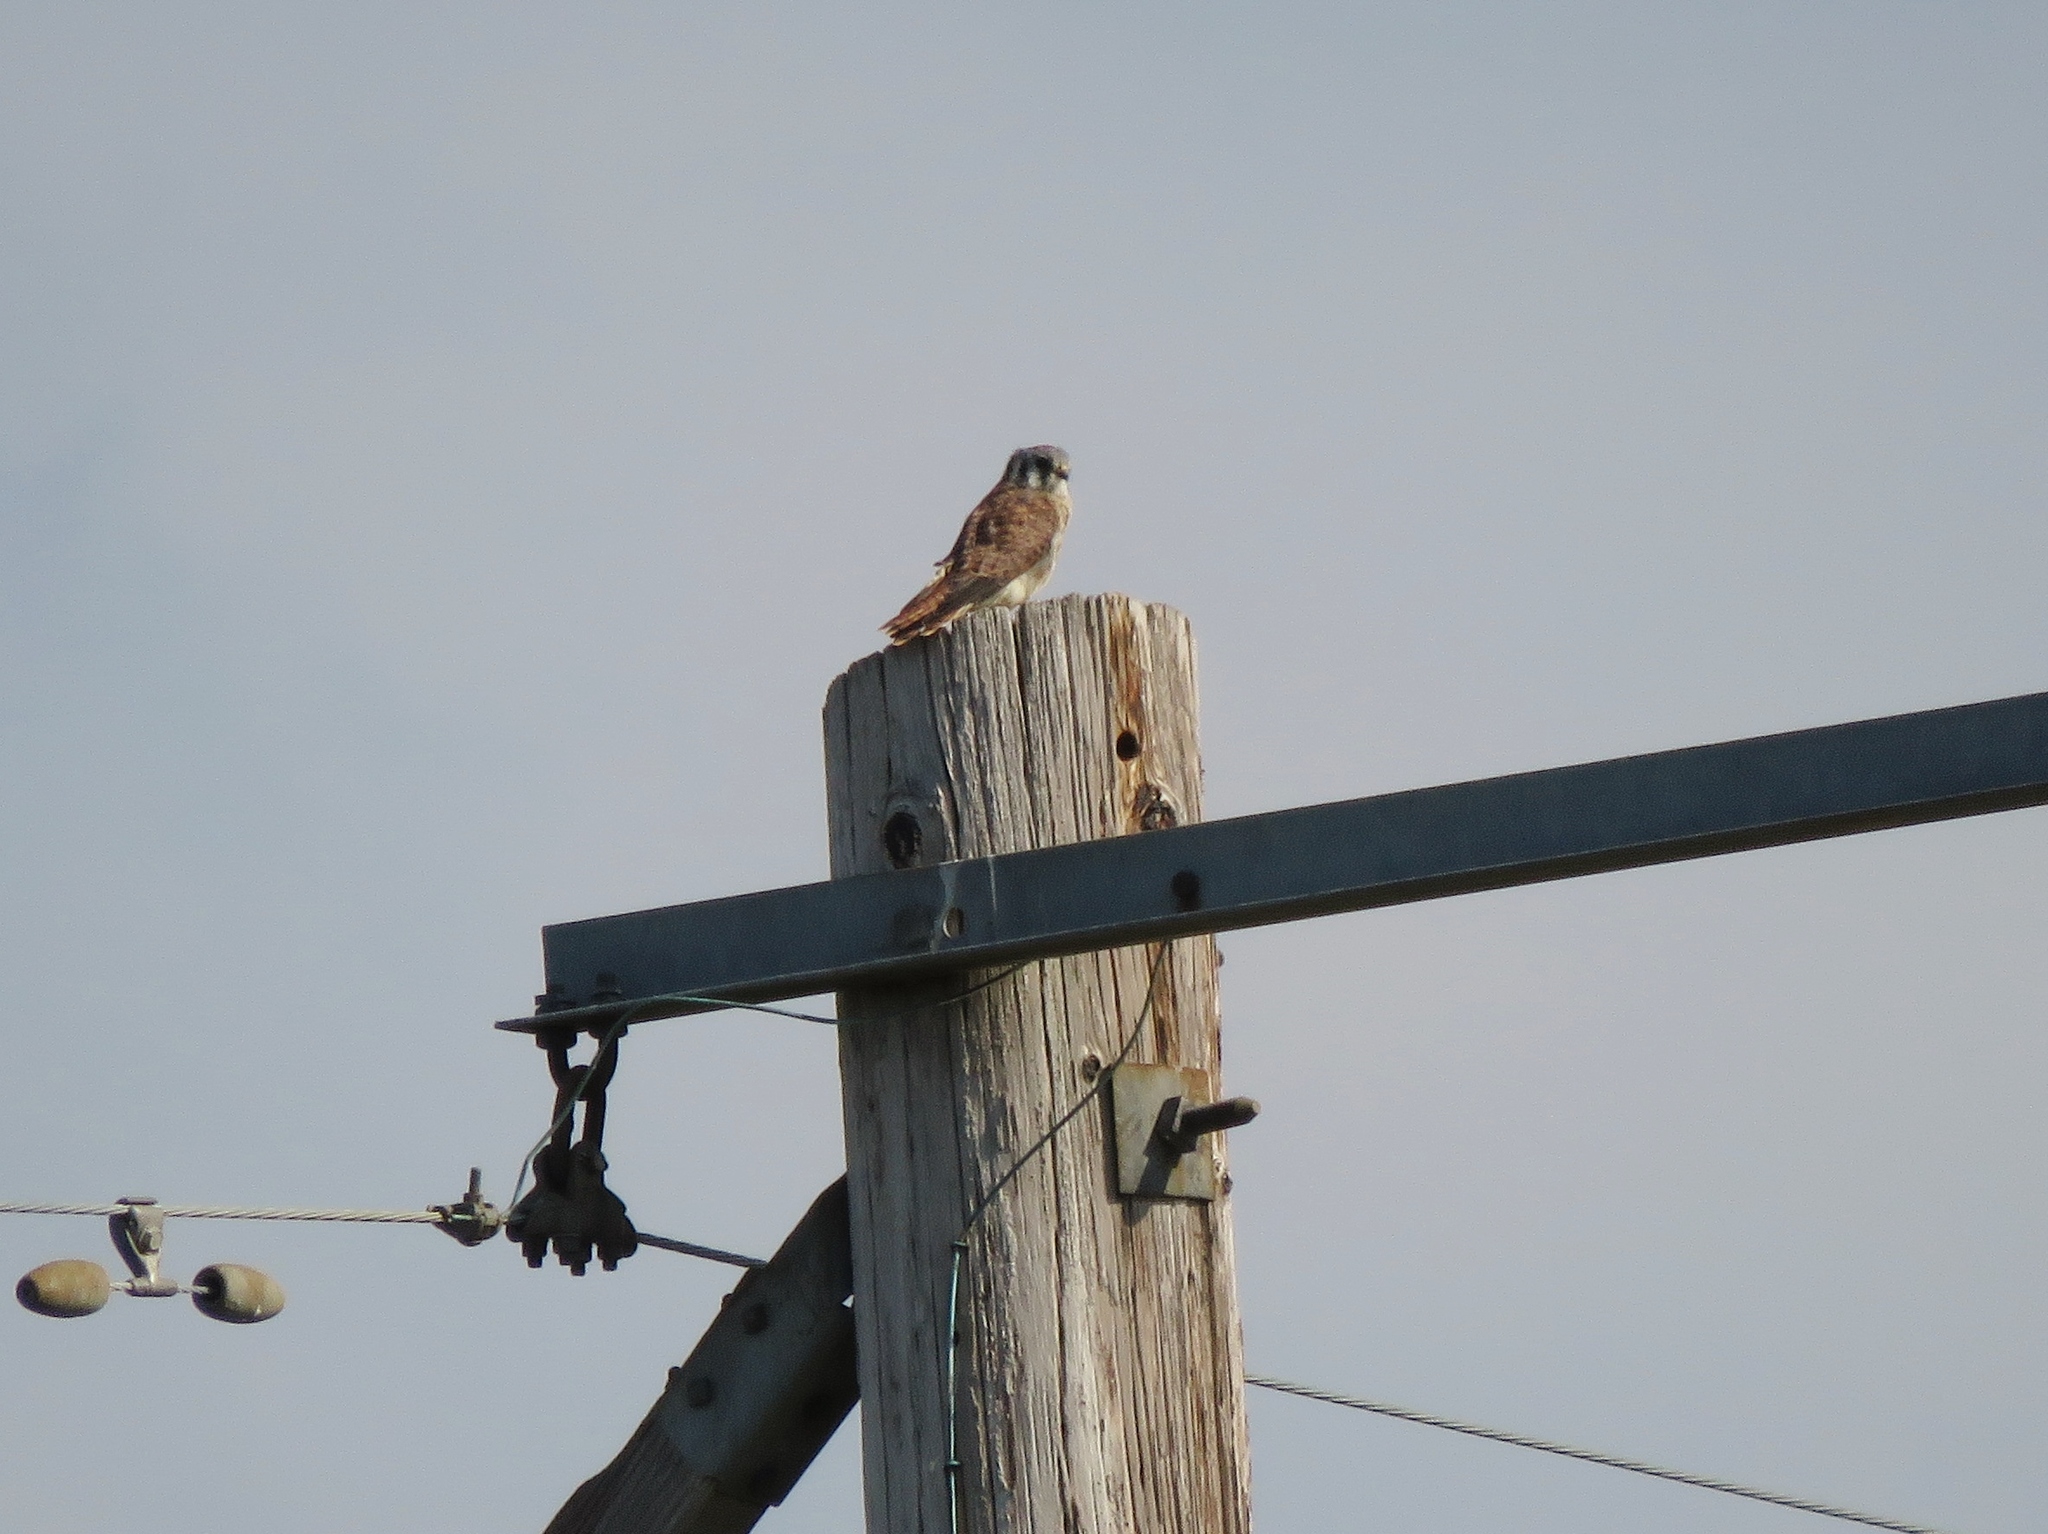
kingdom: Animalia
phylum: Chordata
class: Aves
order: Falconiformes
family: Falconidae
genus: Falco
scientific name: Falco sparverius
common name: American kestrel
